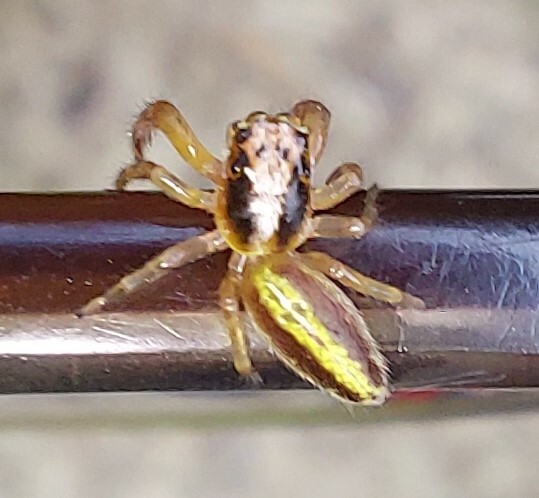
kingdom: Animalia
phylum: Arthropoda
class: Arachnida
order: Araneae
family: Salticidae
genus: Trite
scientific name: Trite planiceps
